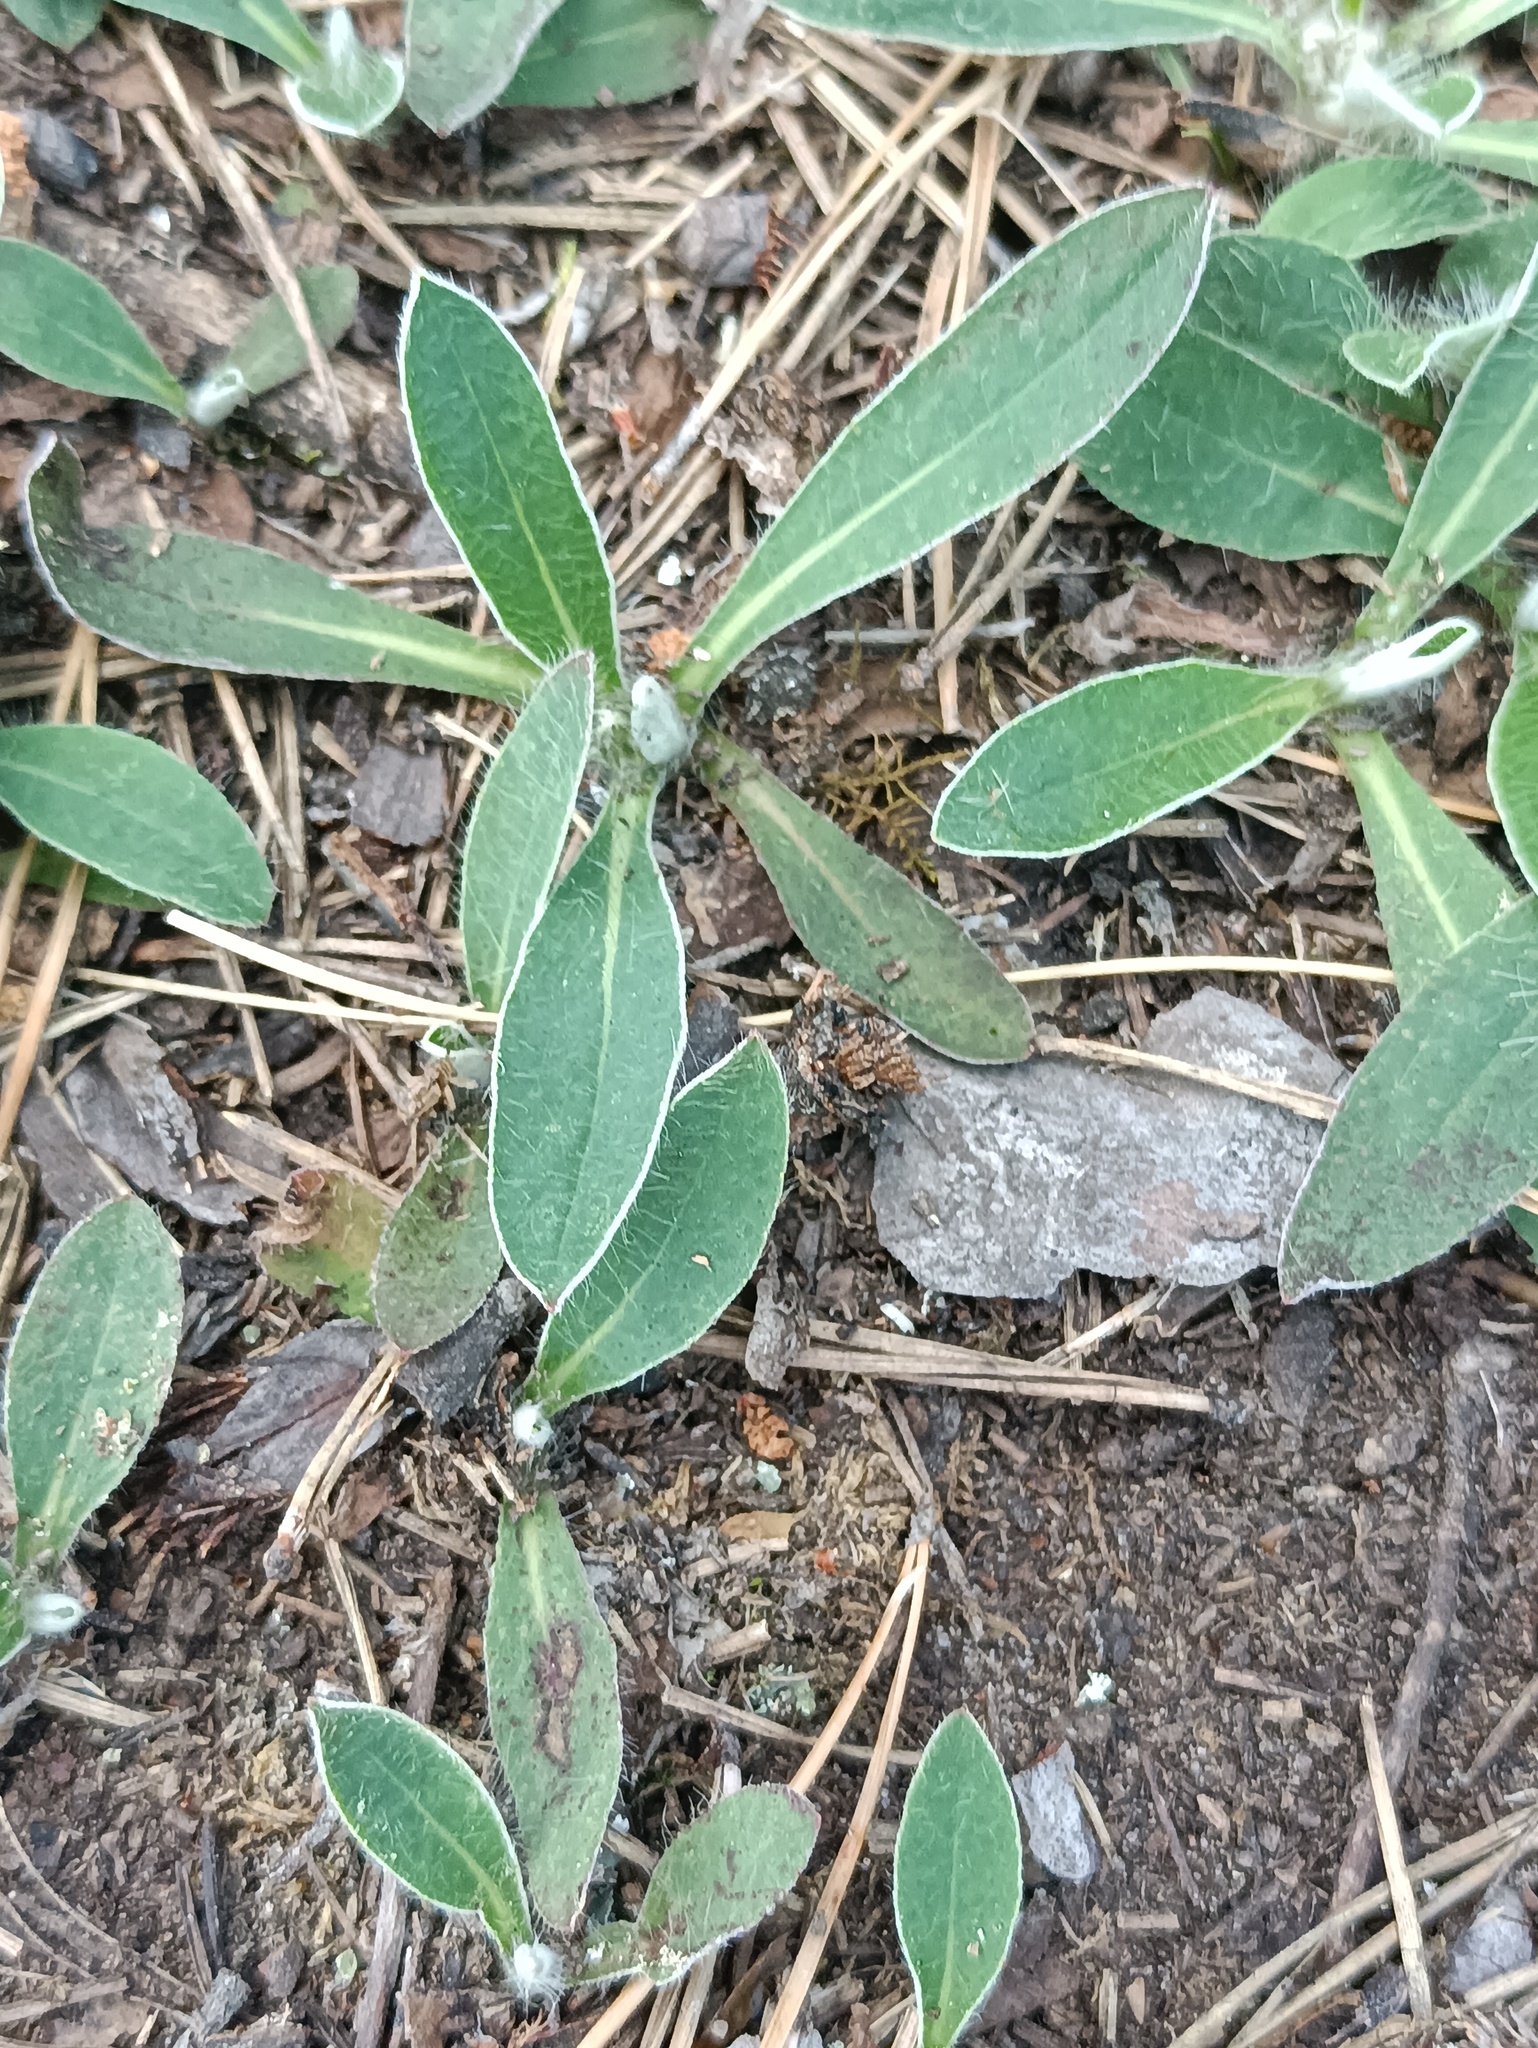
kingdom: Plantae
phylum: Tracheophyta
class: Magnoliopsida
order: Asterales
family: Asteraceae
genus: Pilosella
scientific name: Pilosella officinarum
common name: Mouse-ear hawkweed
